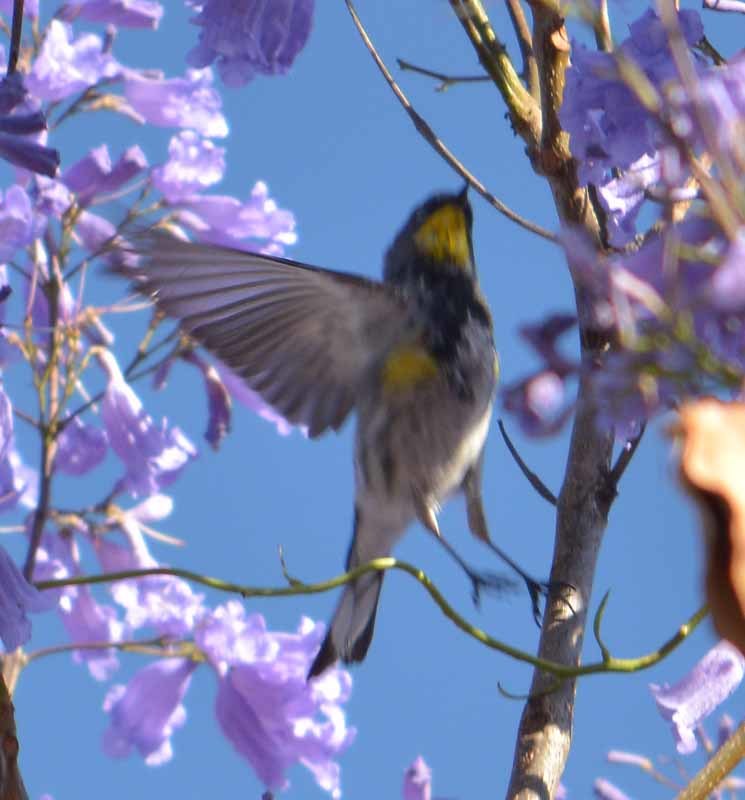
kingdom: Animalia
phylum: Chordata
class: Aves
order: Passeriformes
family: Parulidae
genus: Setophaga
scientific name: Setophaga coronata
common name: Myrtle warbler
